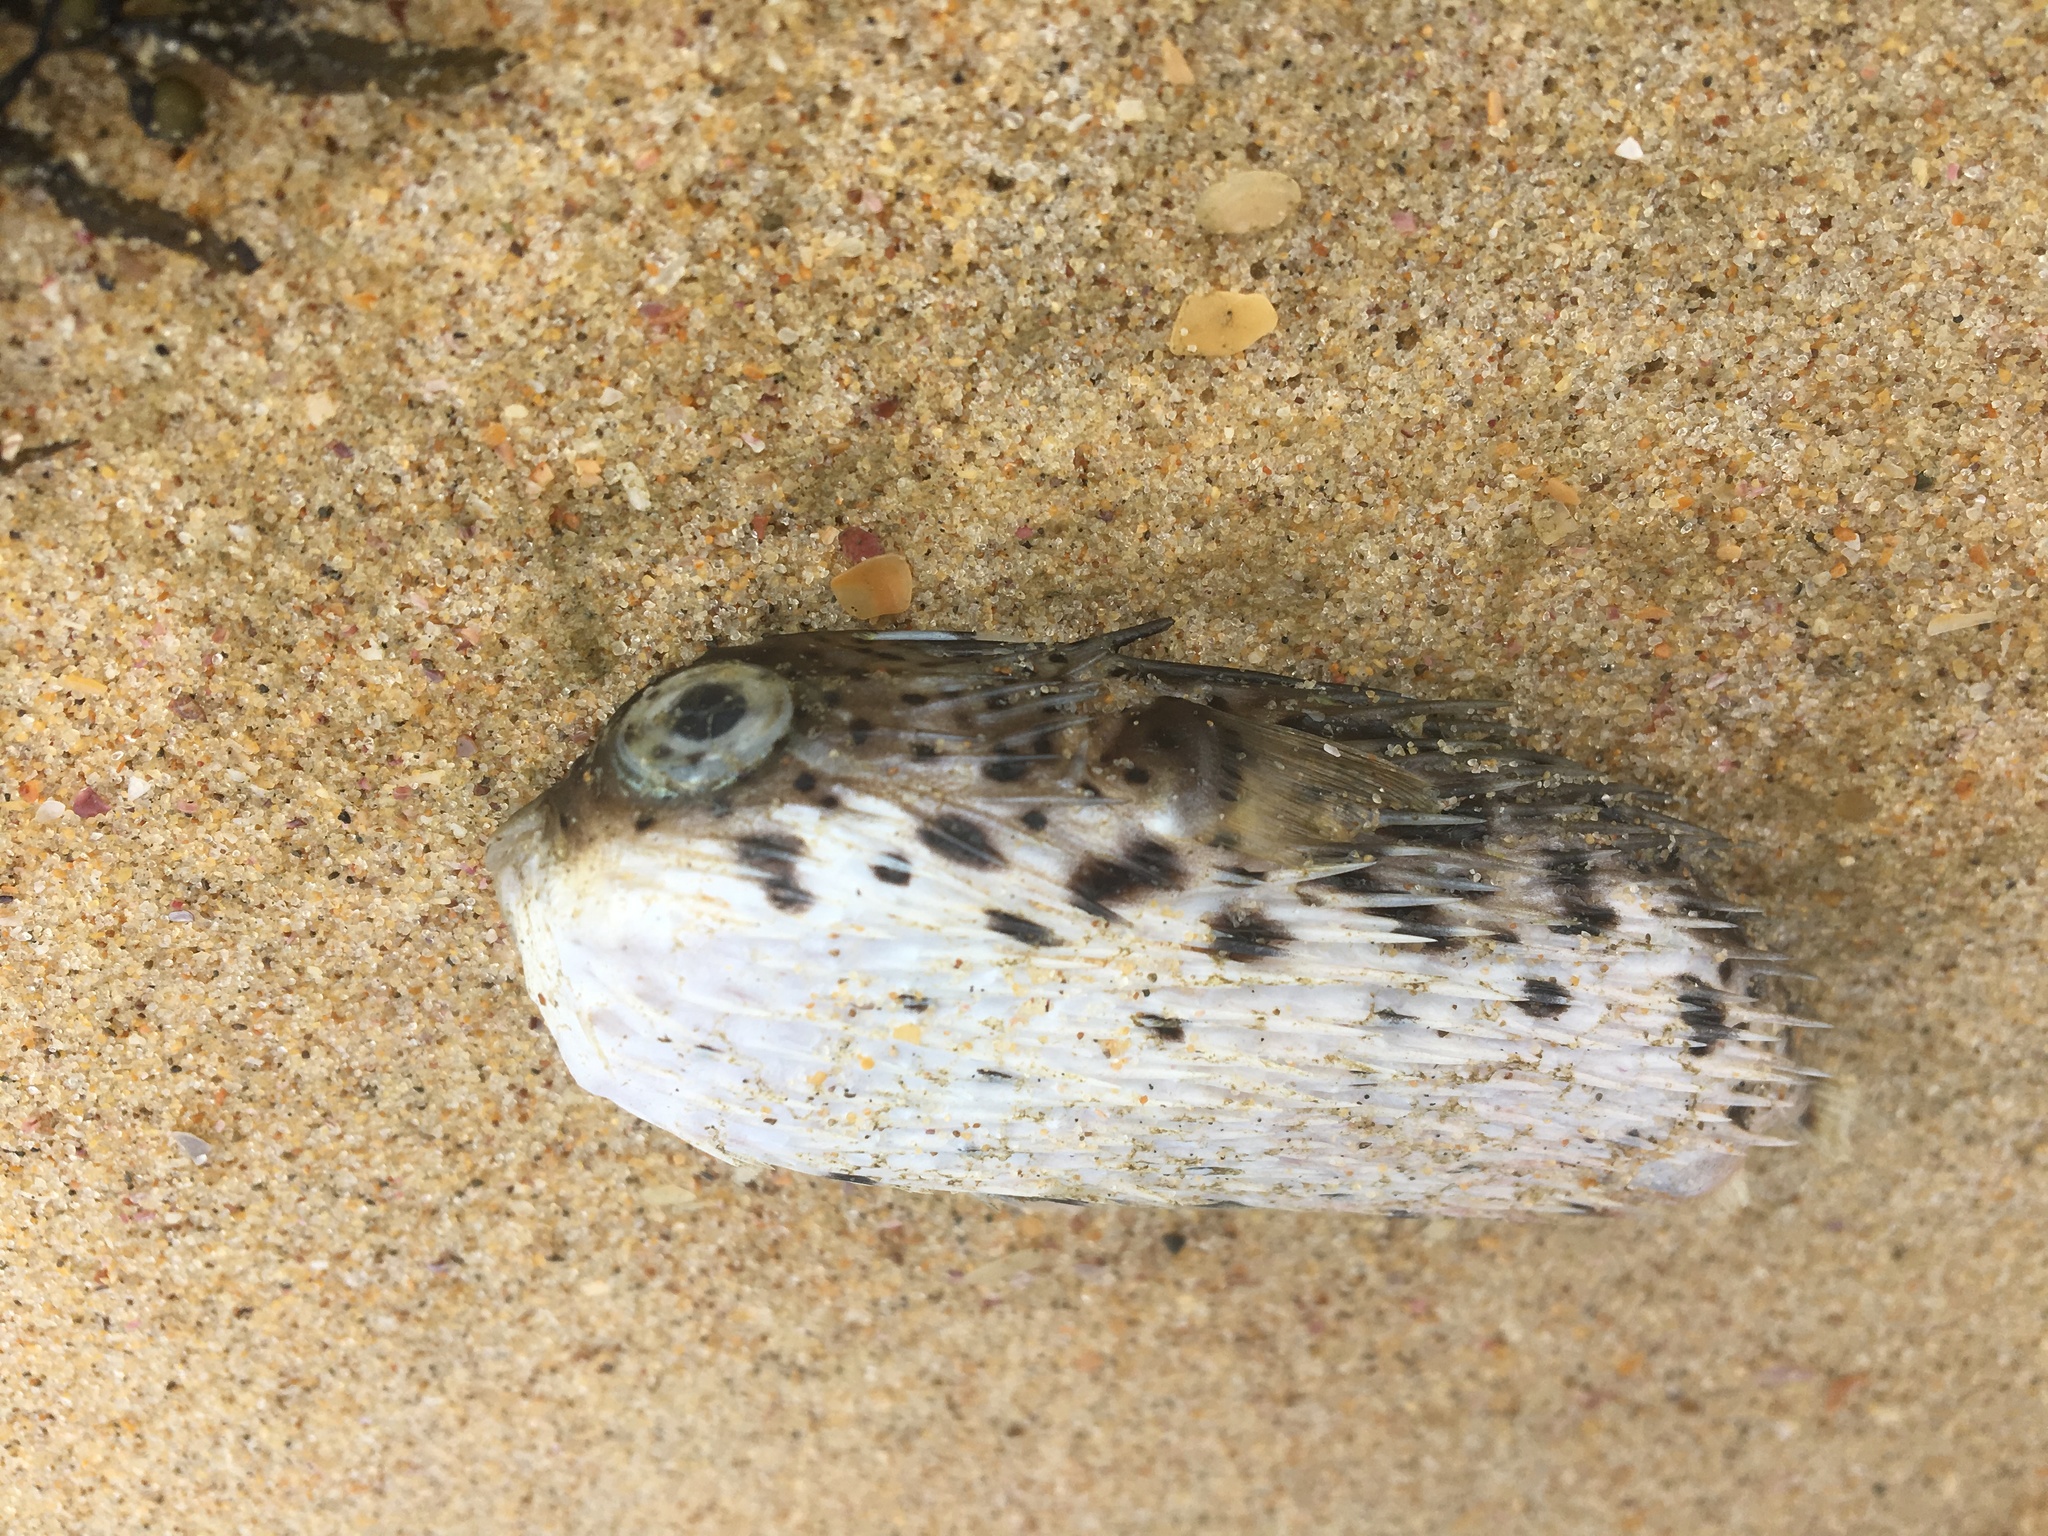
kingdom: Animalia
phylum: Chordata
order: Tetraodontiformes
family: Diodontidae
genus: Diodon
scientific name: Diodon holocanthus
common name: Balloonfish
